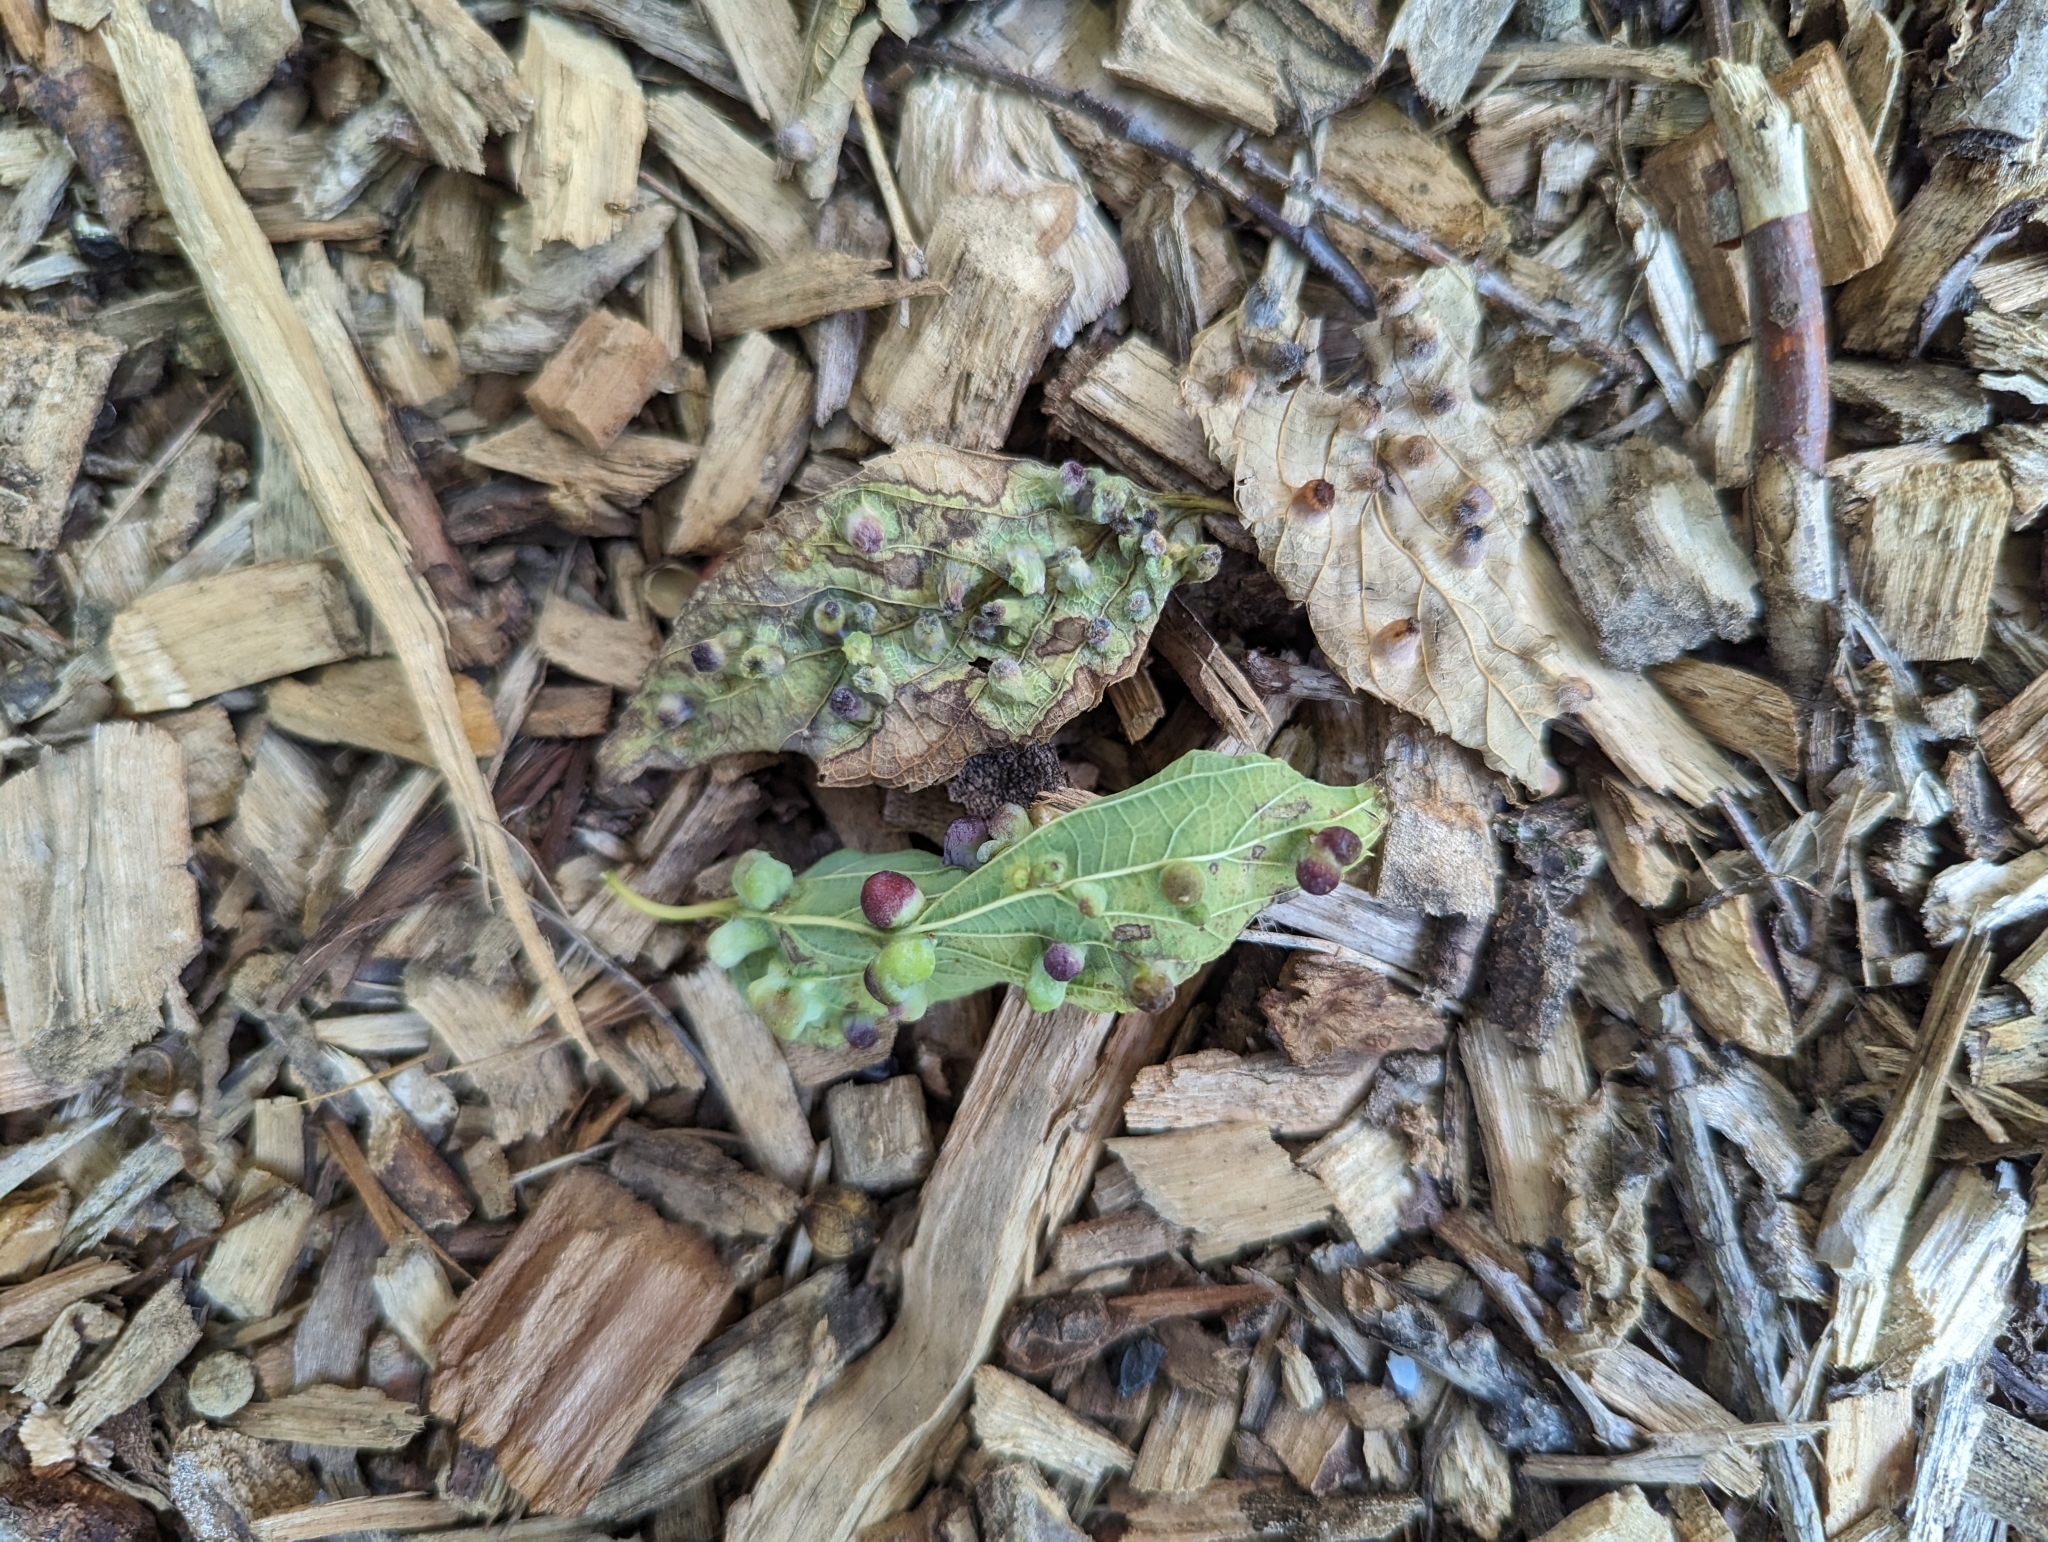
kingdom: Animalia
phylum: Arthropoda
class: Insecta
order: Hemiptera
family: Aphalaridae
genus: Pachypsylla
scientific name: Pachypsylla celtidismamma
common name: Hackberry nipplegall psyllid
